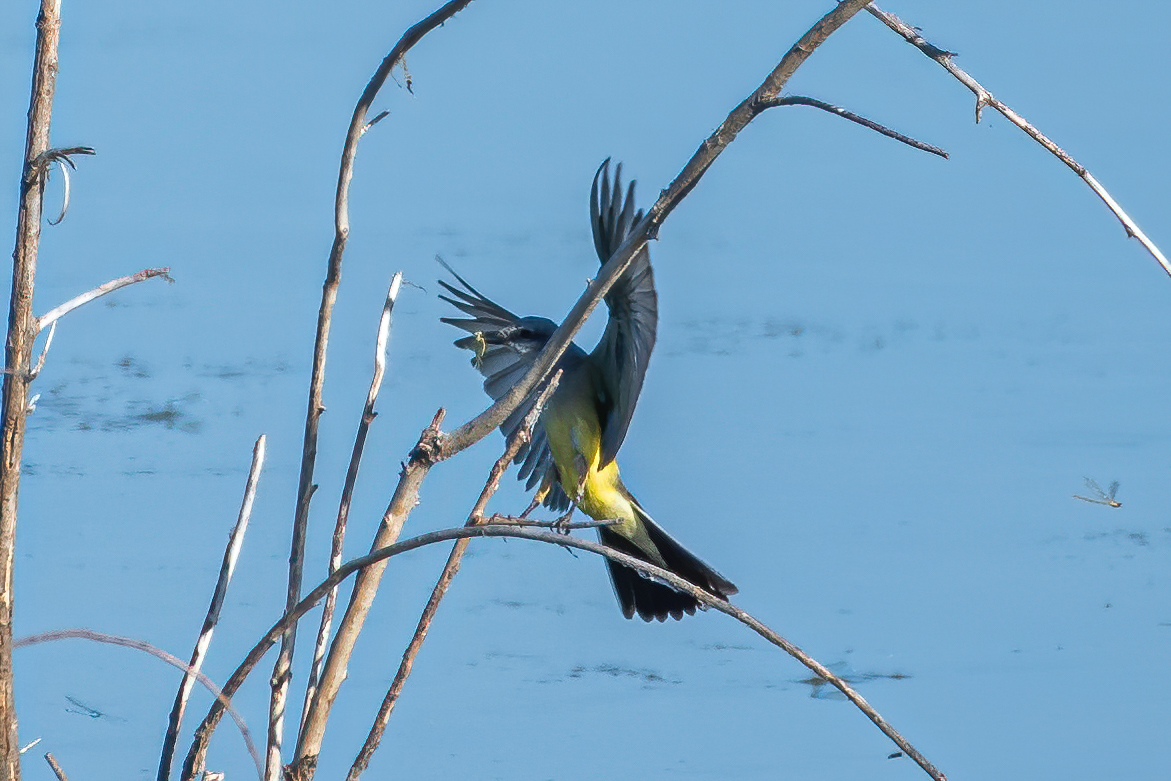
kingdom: Animalia
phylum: Chordata
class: Aves
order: Passeriformes
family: Tyrannidae
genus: Tyrannus
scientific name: Tyrannus verticalis
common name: Western kingbird
